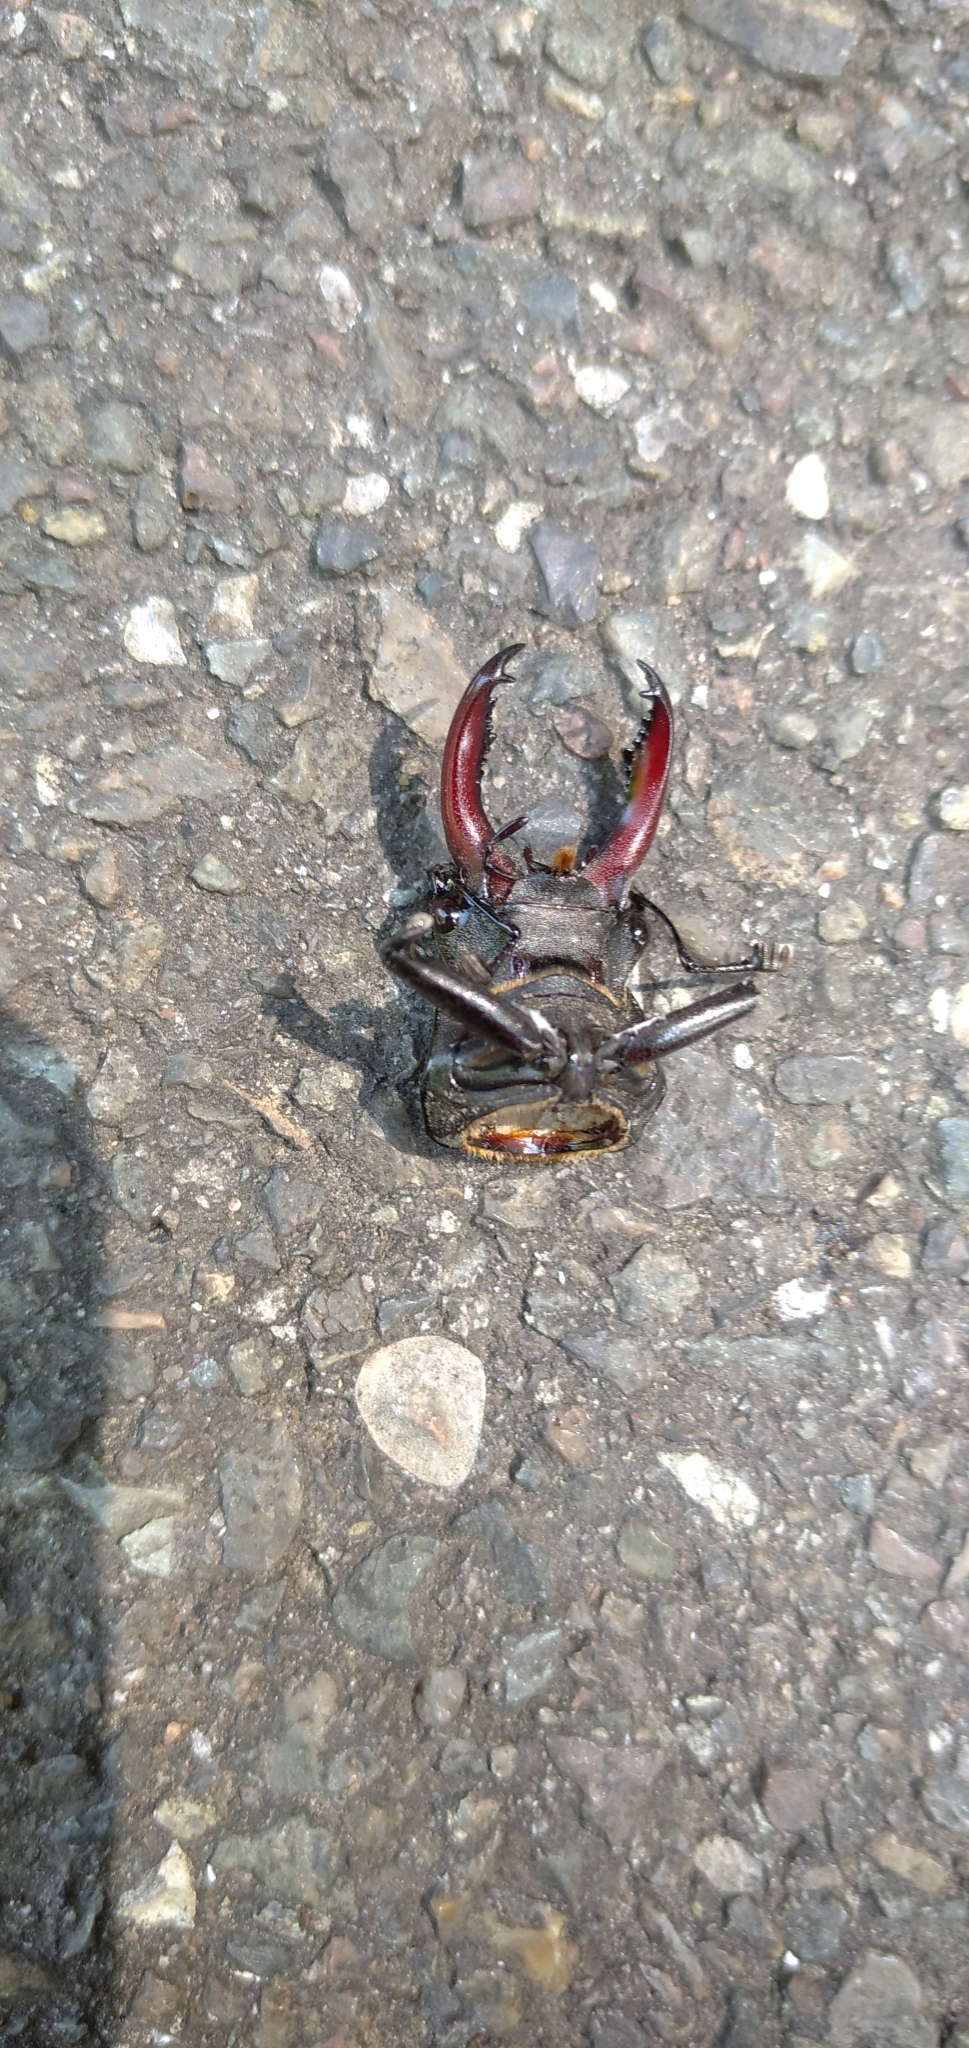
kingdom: Animalia
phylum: Arthropoda
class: Insecta
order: Coleoptera
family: Lucanidae
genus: Lucanus
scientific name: Lucanus cervus
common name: Stag beetle
